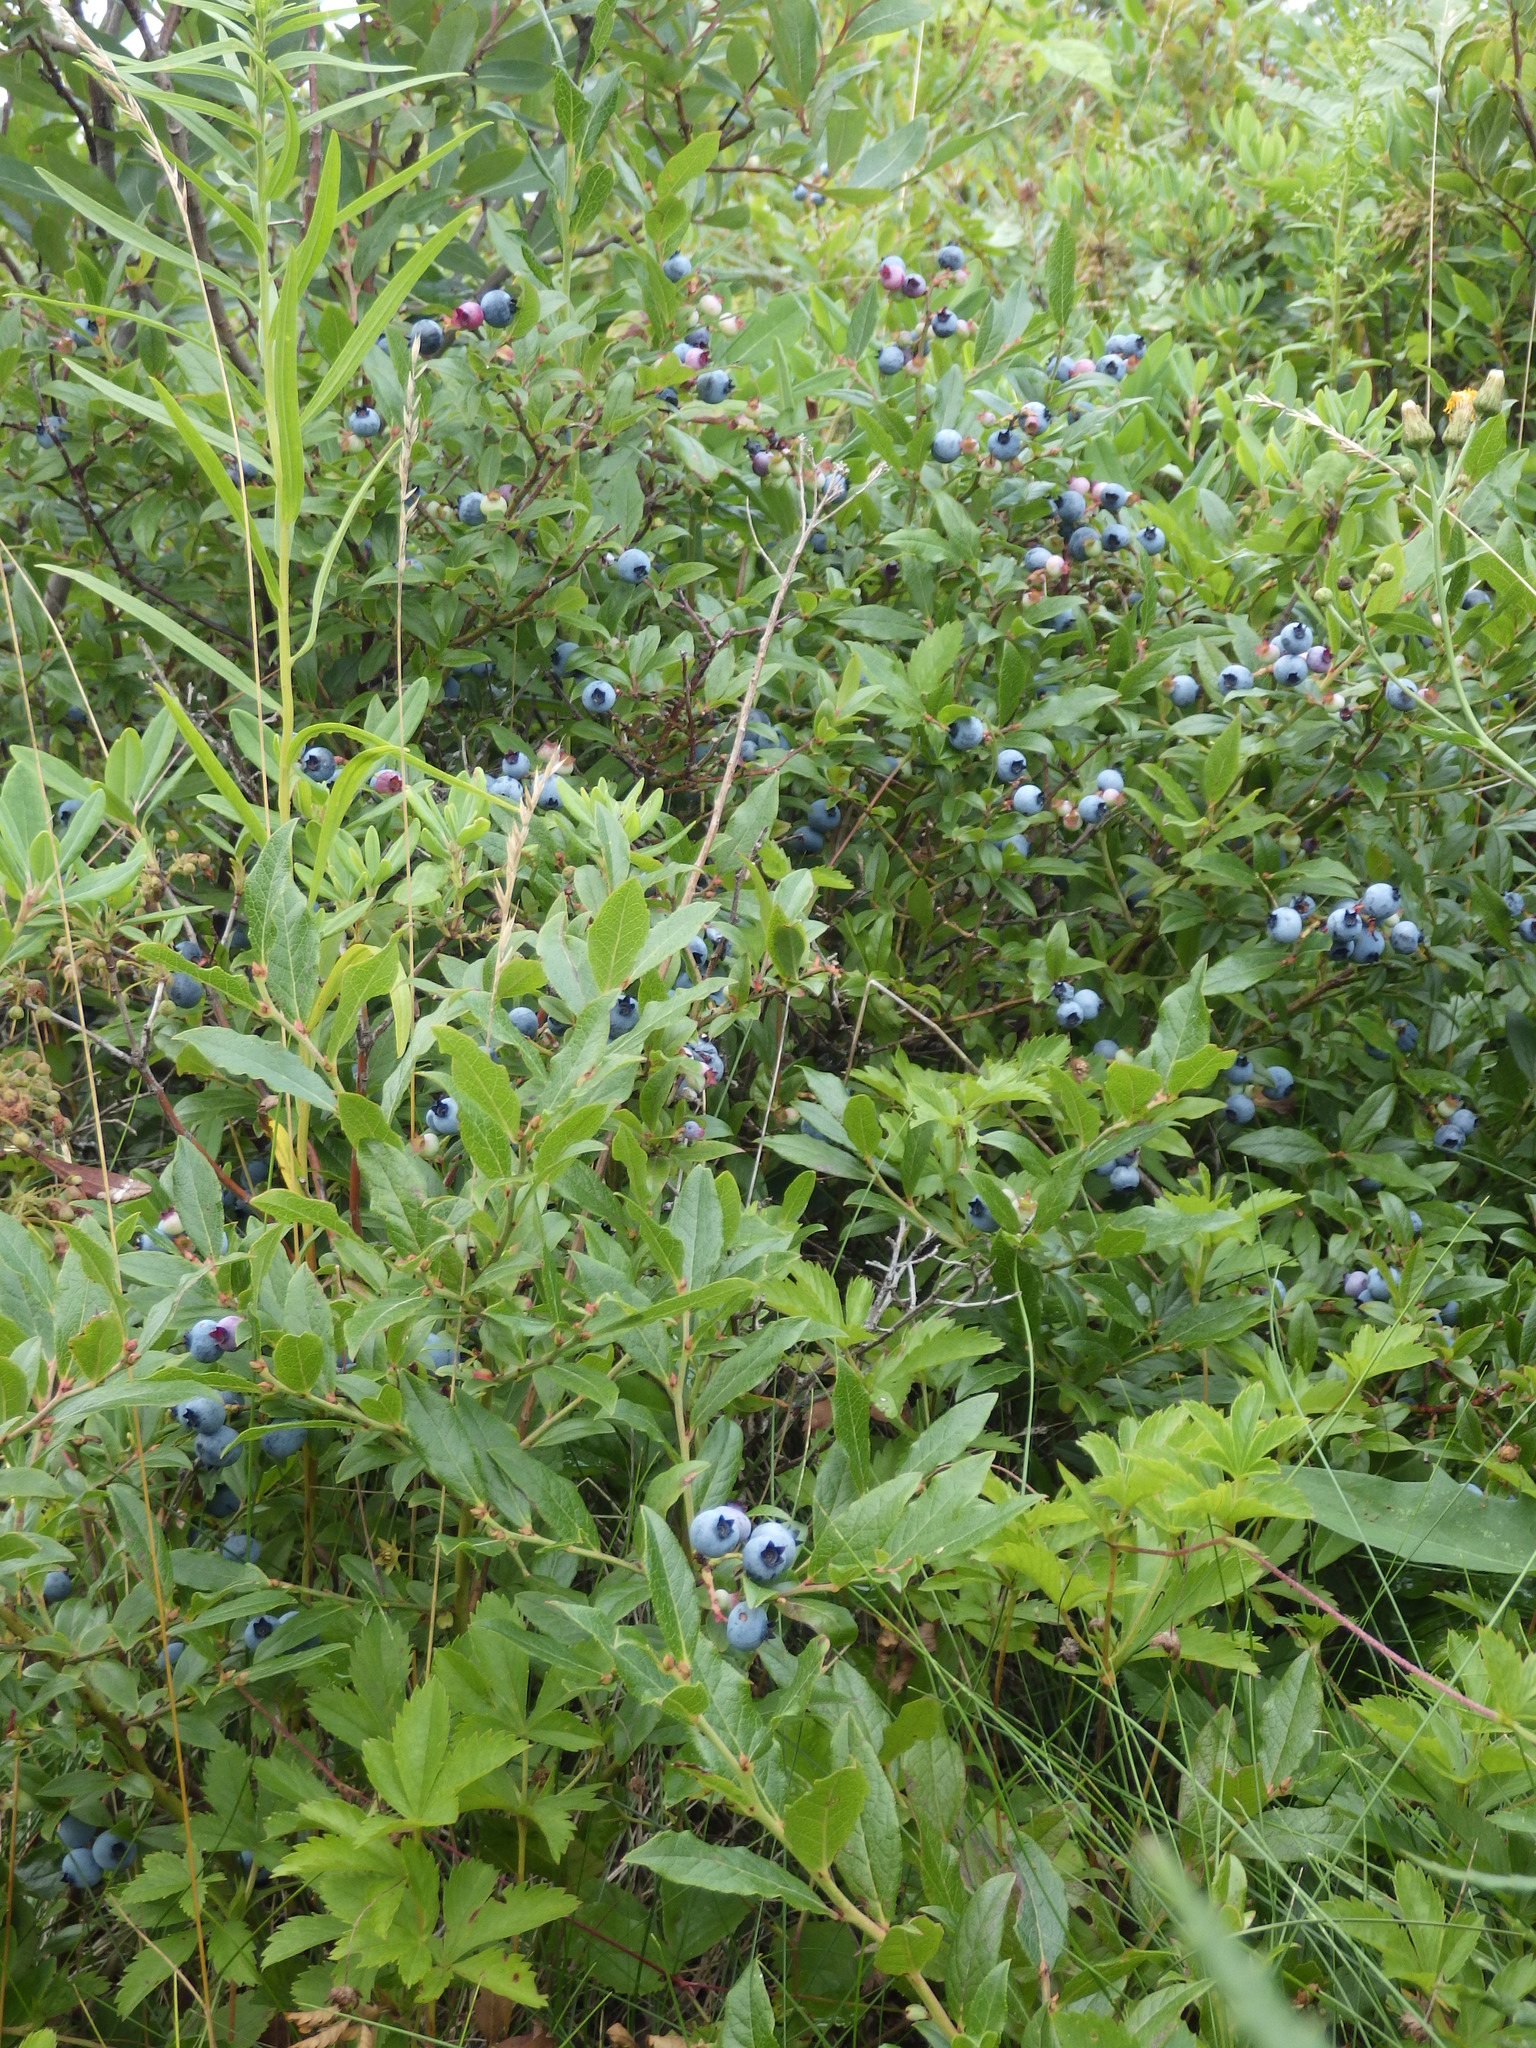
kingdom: Plantae
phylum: Tracheophyta
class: Magnoliopsida
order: Ericales
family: Ericaceae
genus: Vaccinium
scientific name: Vaccinium angustifolium
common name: Early lowbush blueberry
